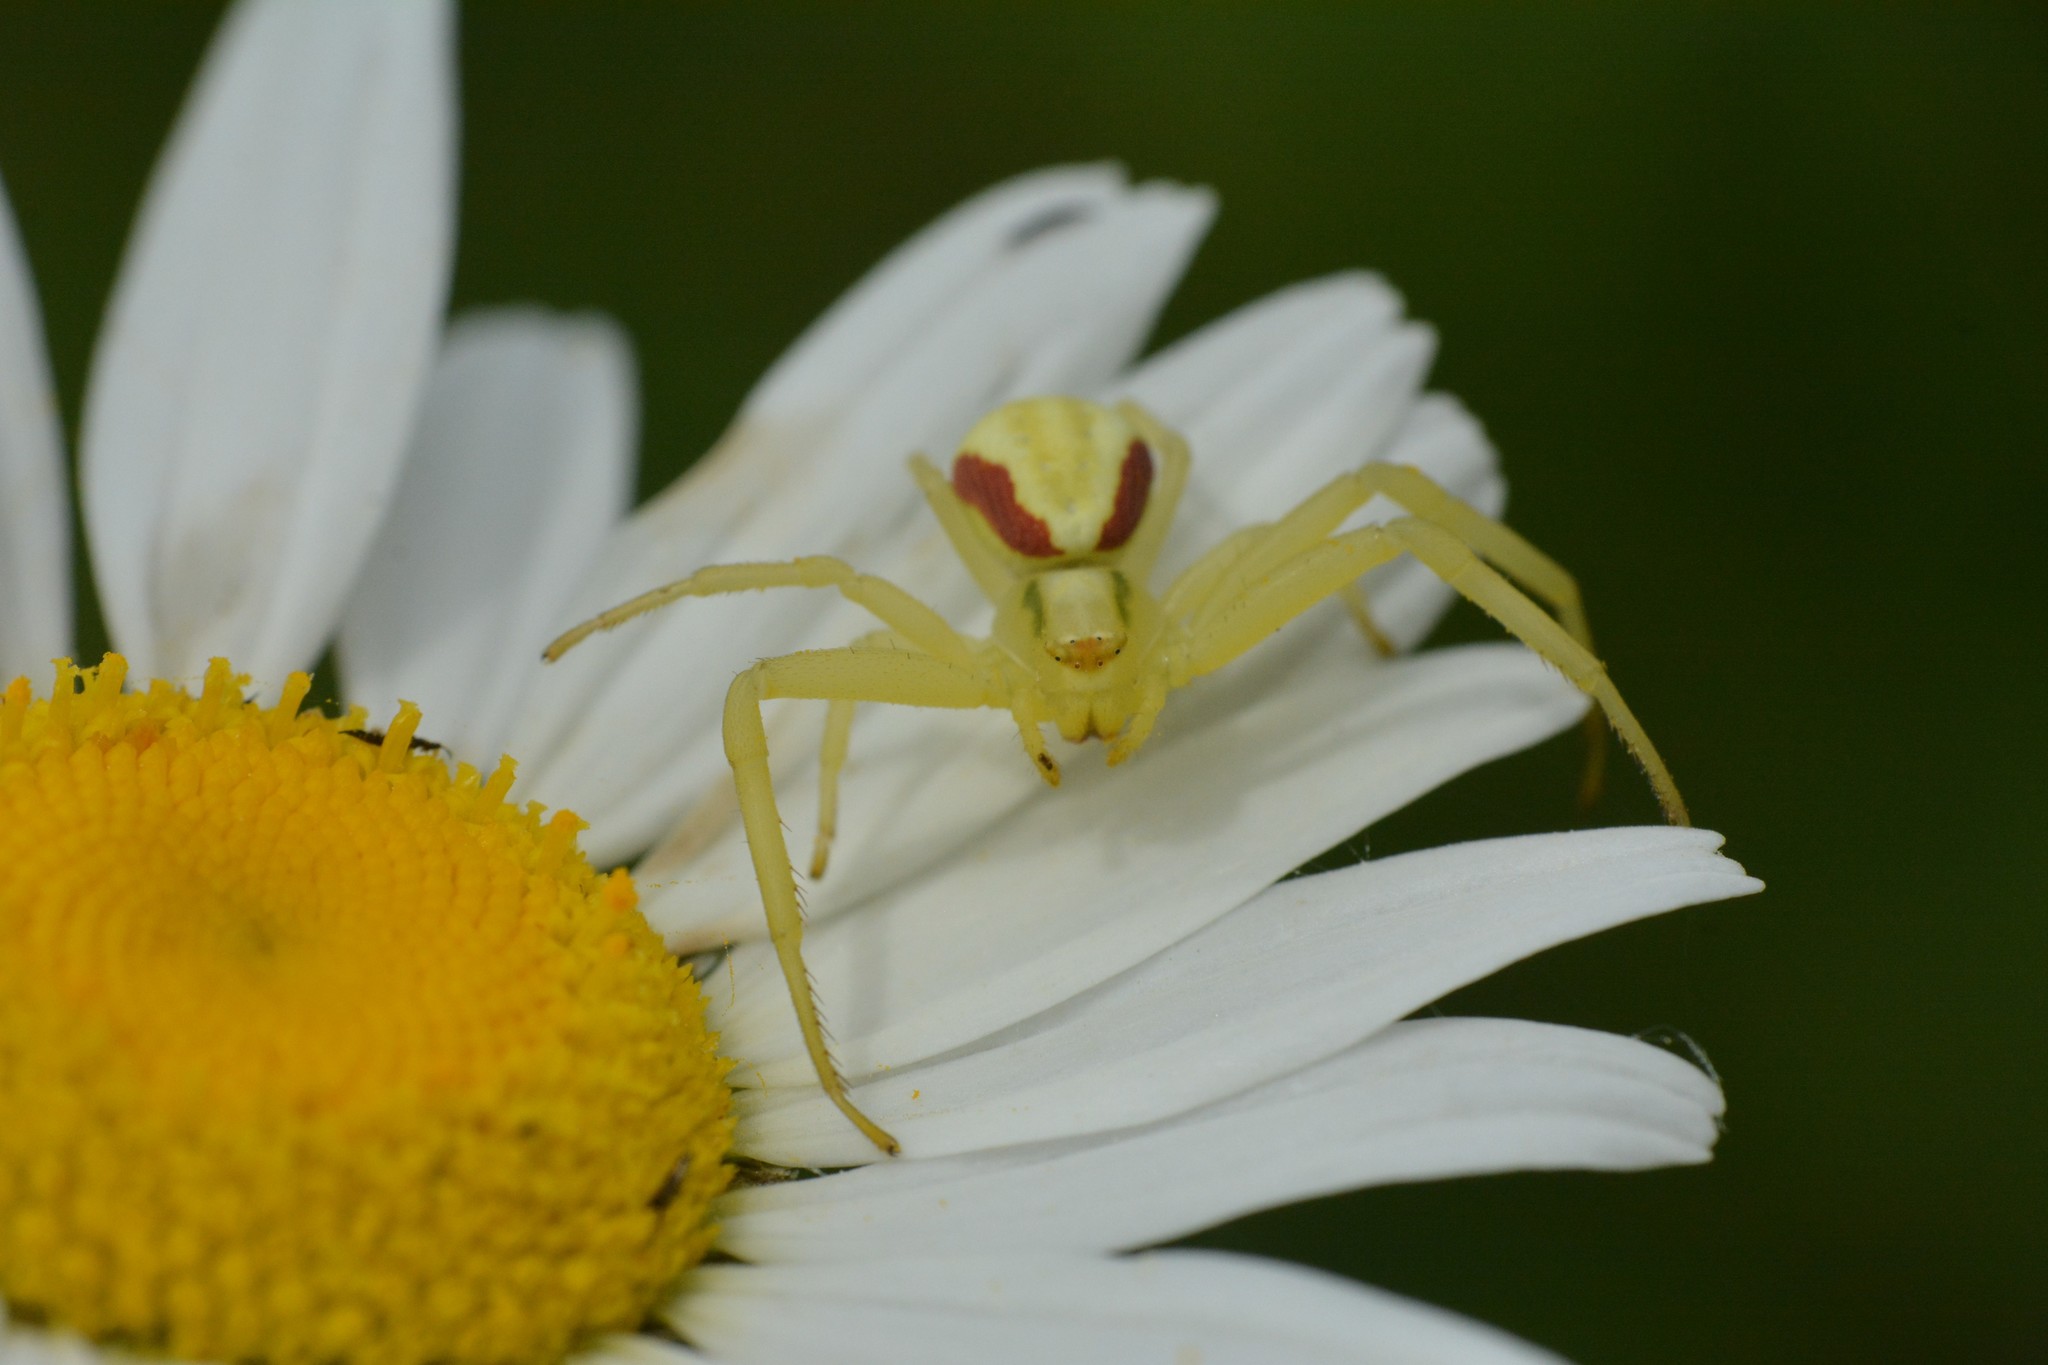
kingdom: Animalia
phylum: Arthropoda
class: Arachnida
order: Araneae
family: Thomisidae
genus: Misumena
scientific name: Misumena vatia
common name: Goldenrod crab spider
